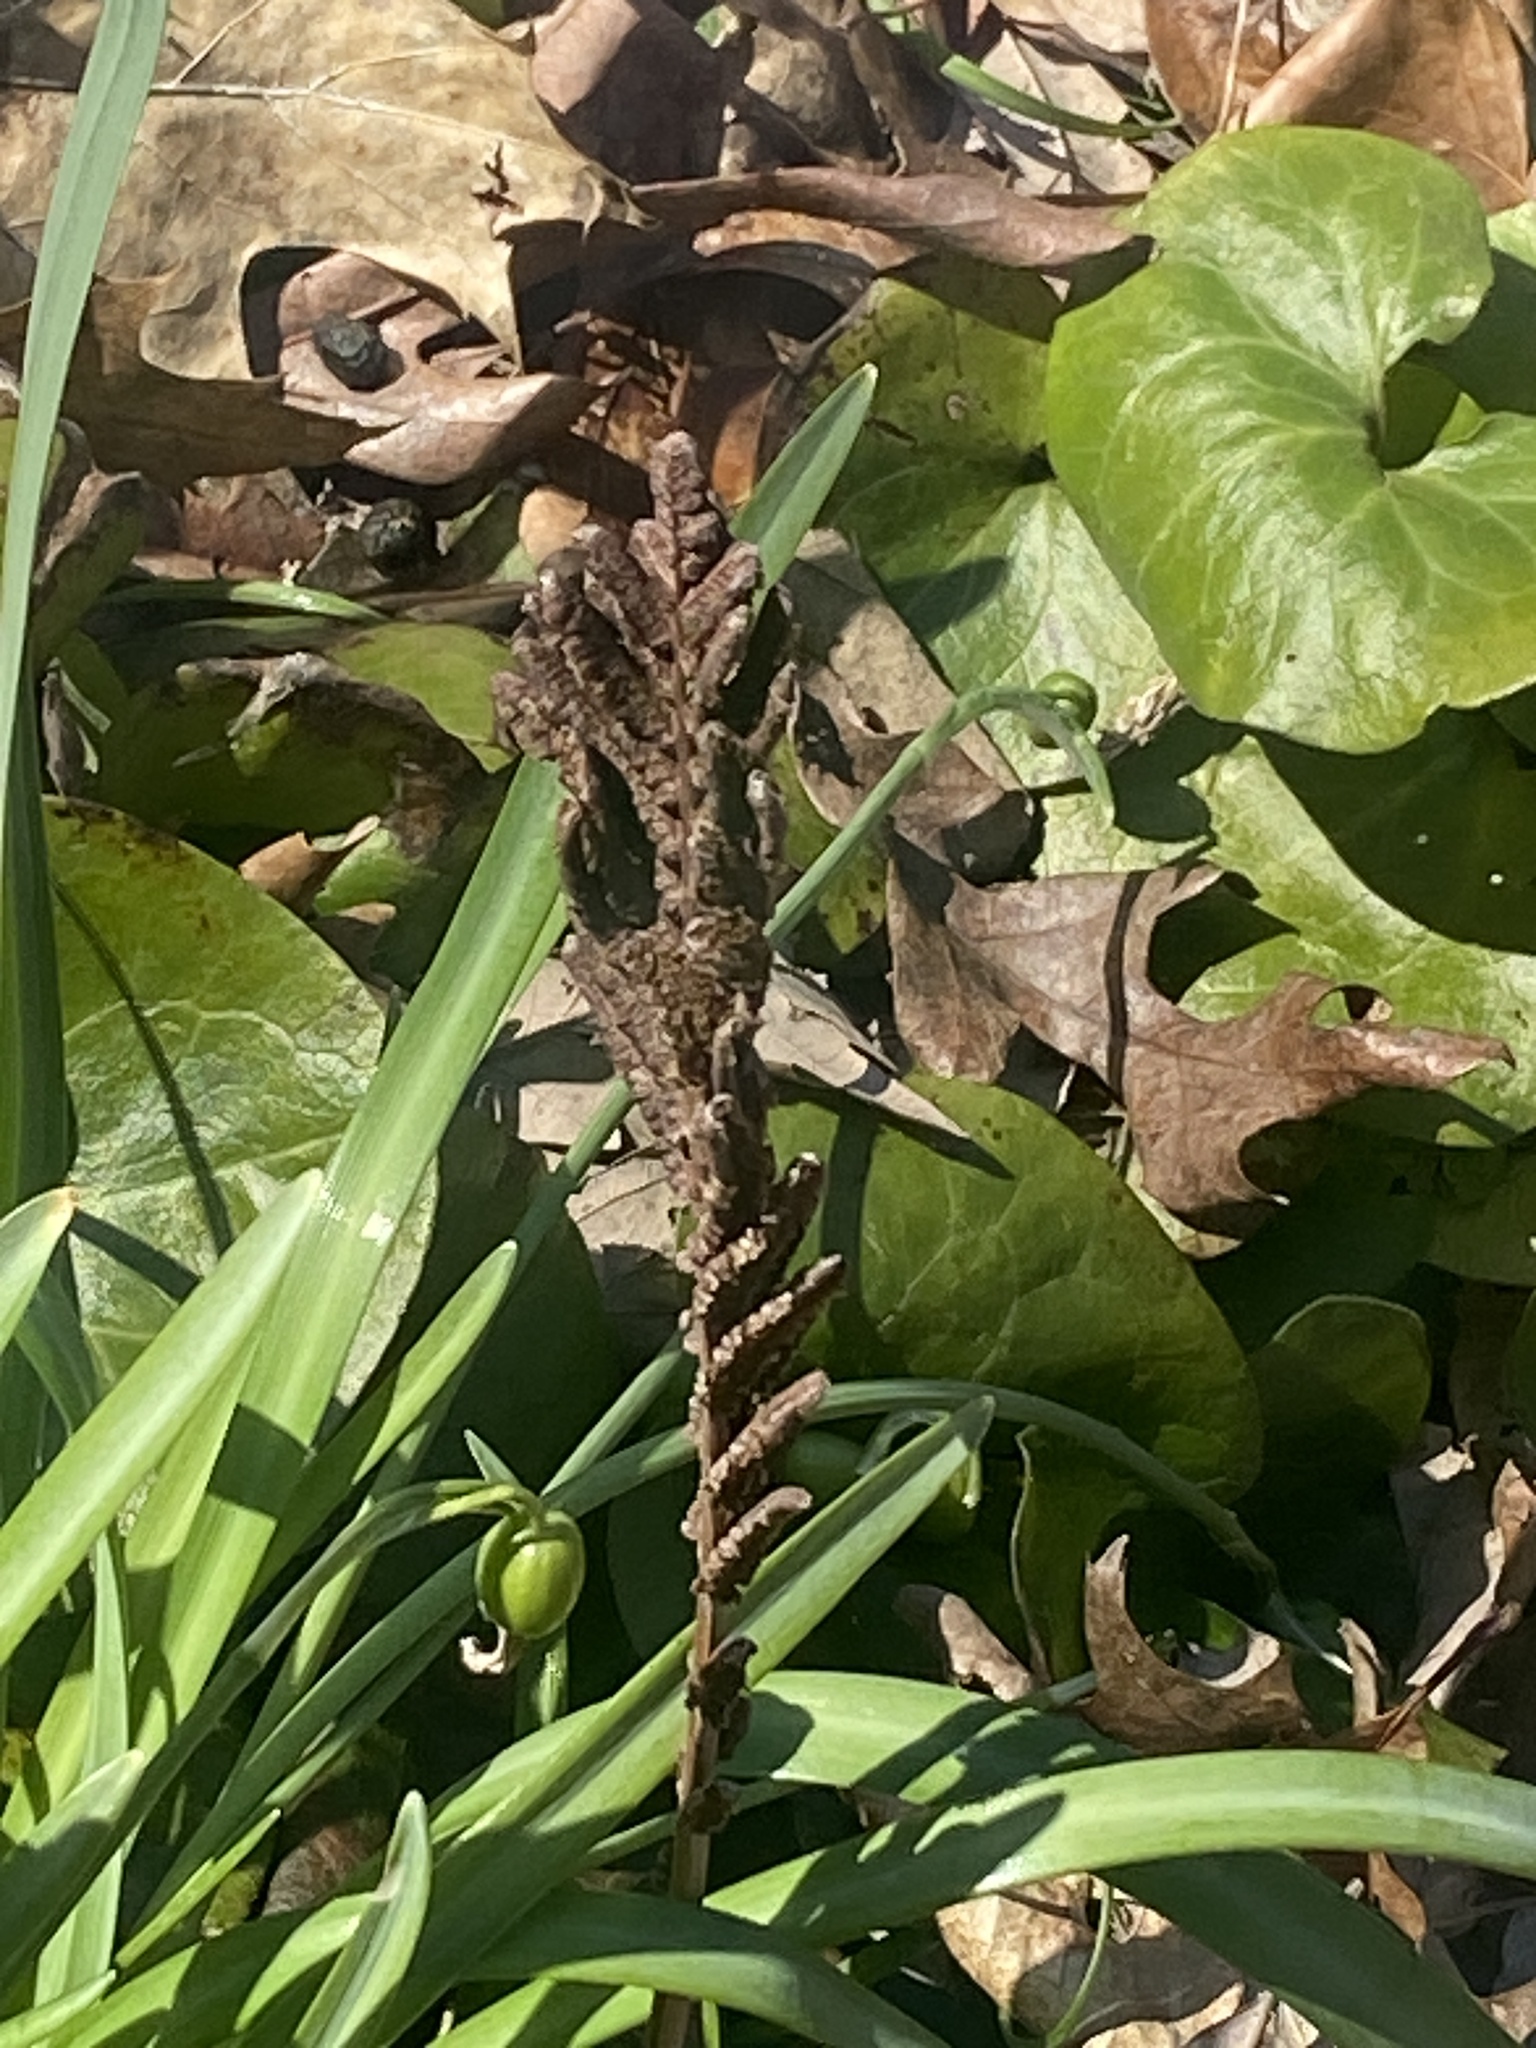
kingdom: Plantae
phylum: Tracheophyta
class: Polypodiopsida
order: Polypodiales
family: Onocleaceae
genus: Matteuccia
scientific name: Matteuccia struthiopteris
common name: Ostrich fern
